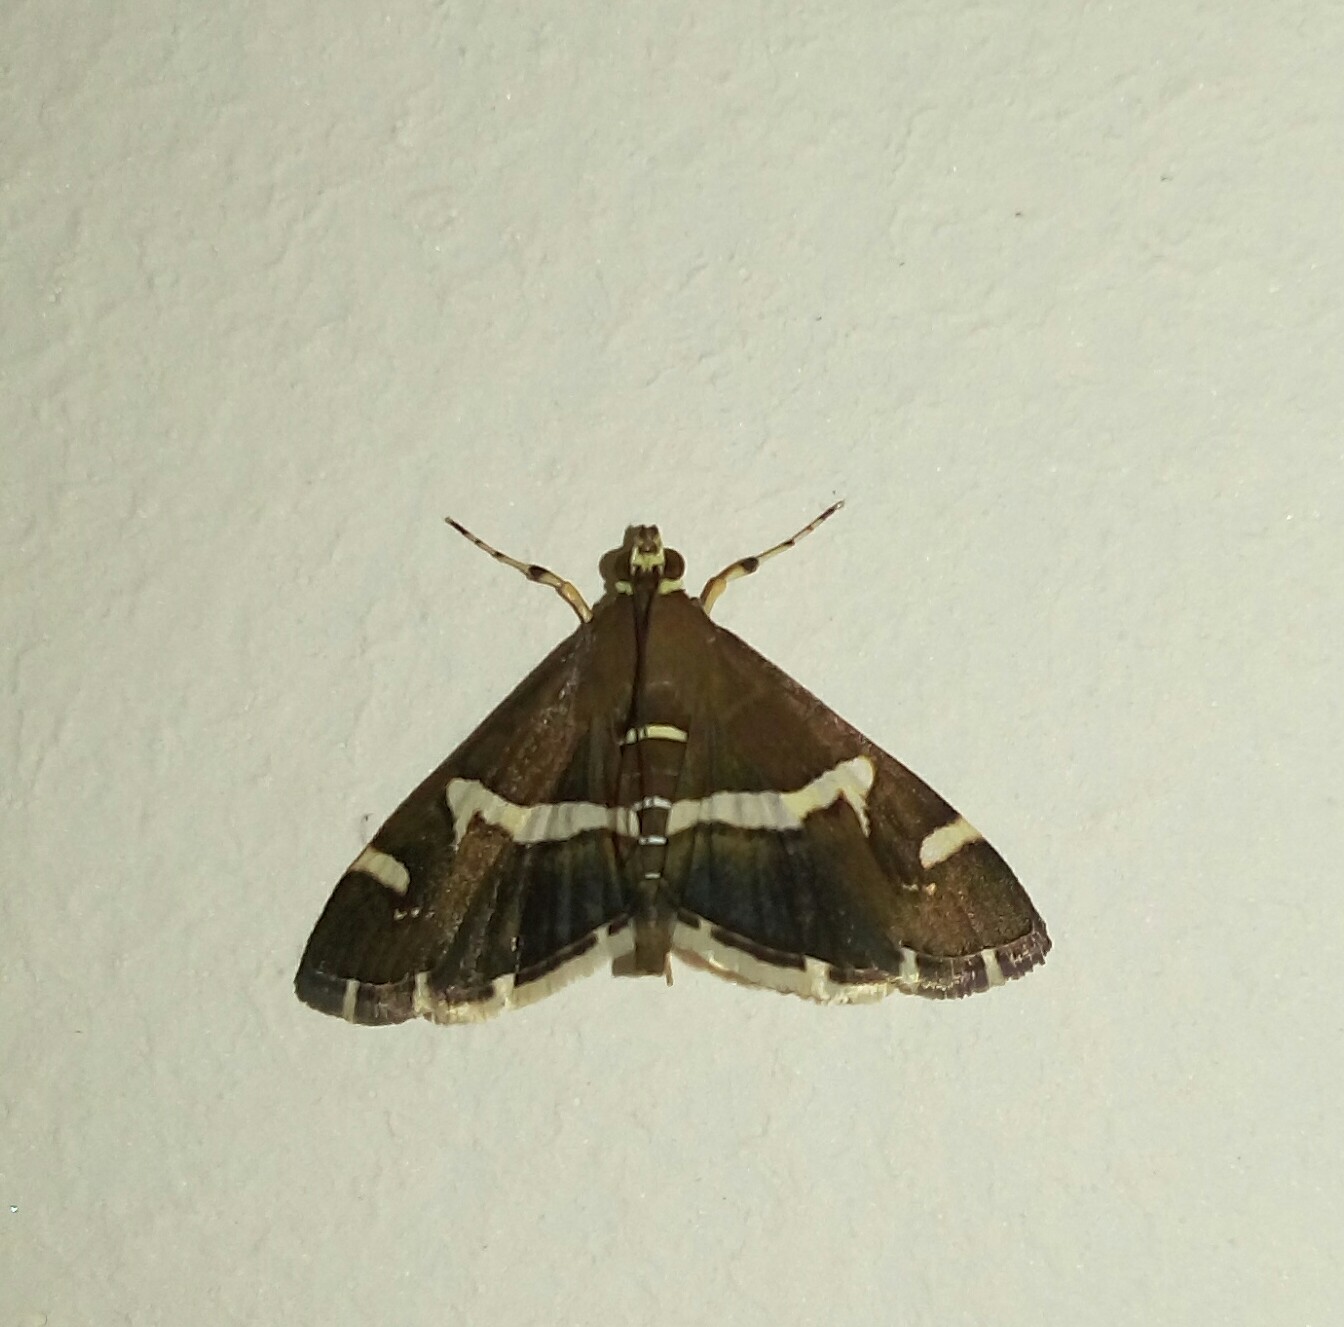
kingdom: Animalia
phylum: Arthropoda
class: Insecta
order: Lepidoptera
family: Crambidae
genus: Spoladea
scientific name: Spoladea recurvalis
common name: Beet webworm moth
